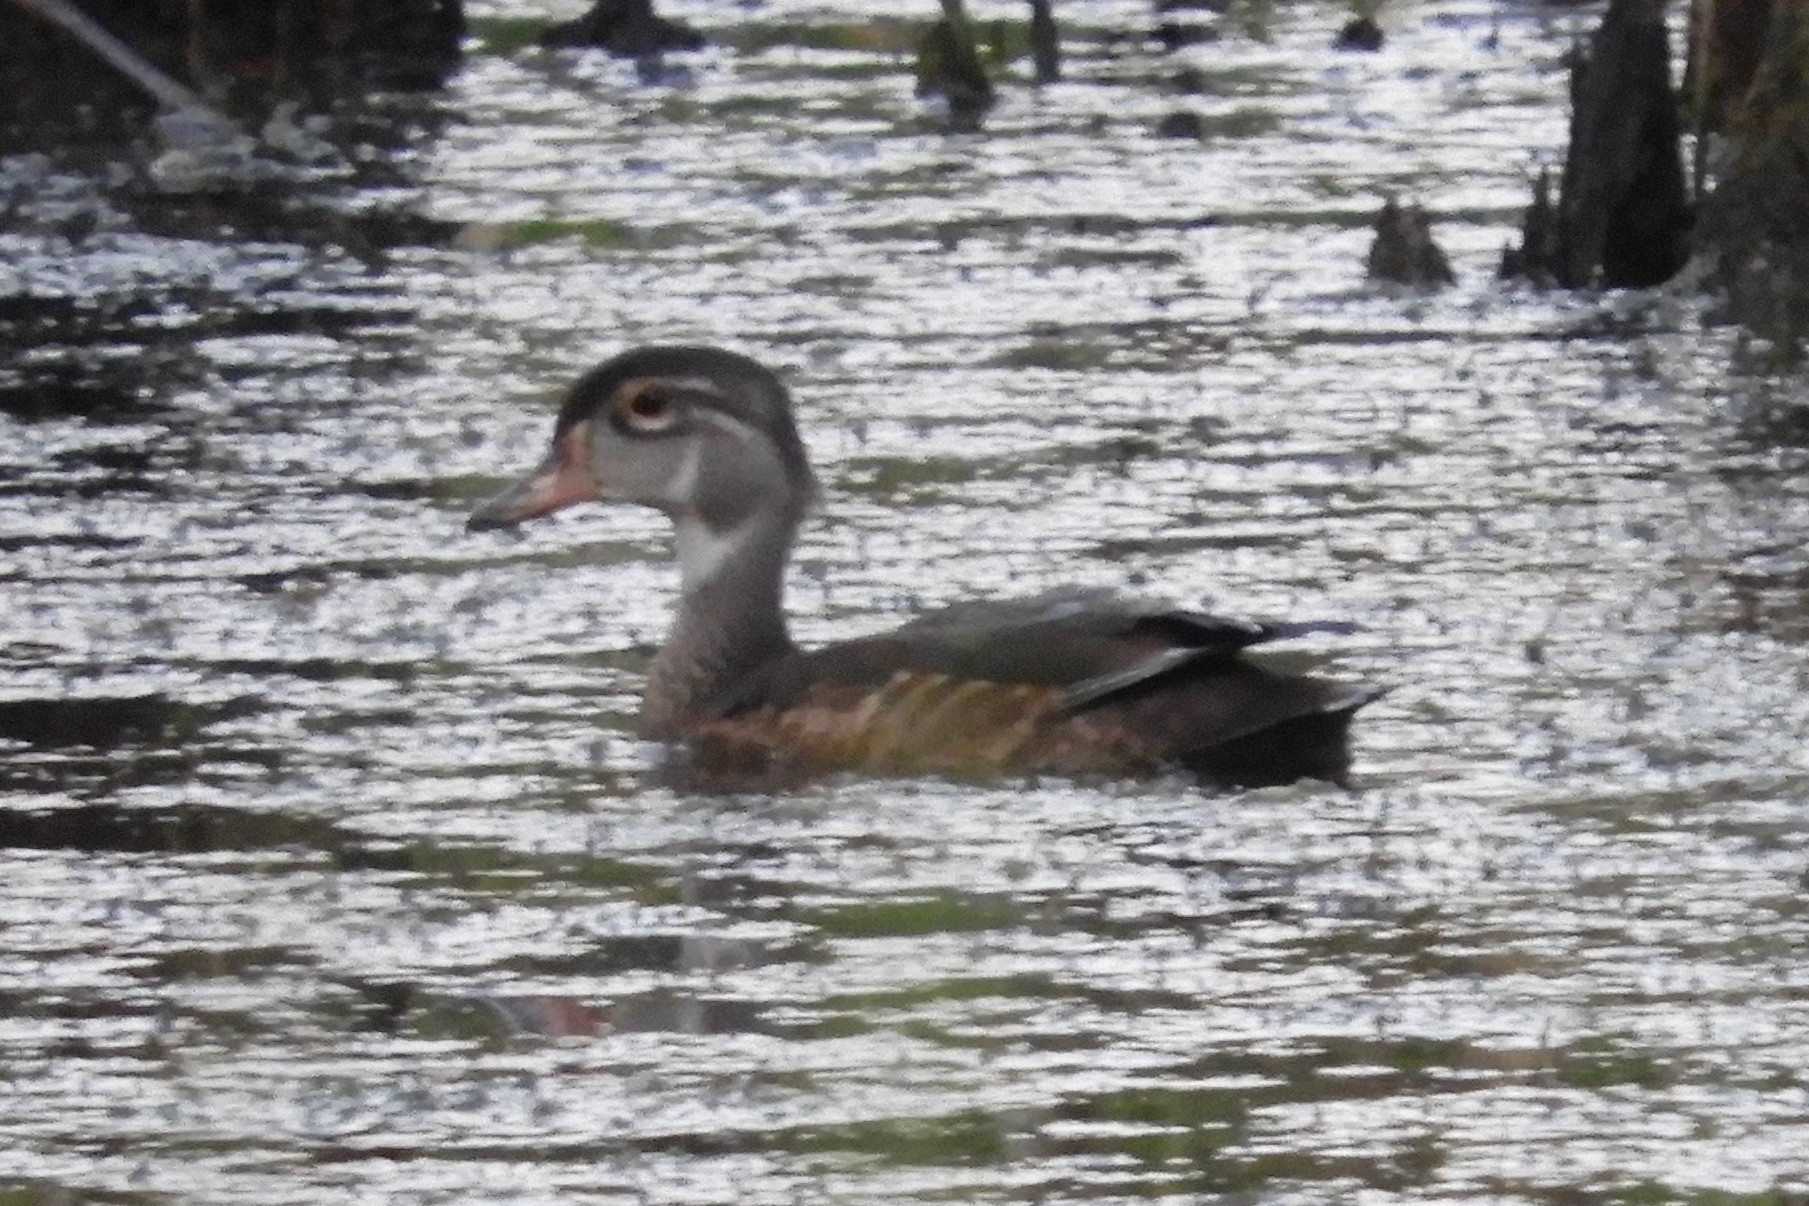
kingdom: Animalia
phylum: Chordata
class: Aves
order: Anseriformes
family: Anatidae
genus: Aix
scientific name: Aix sponsa
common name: Wood duck
